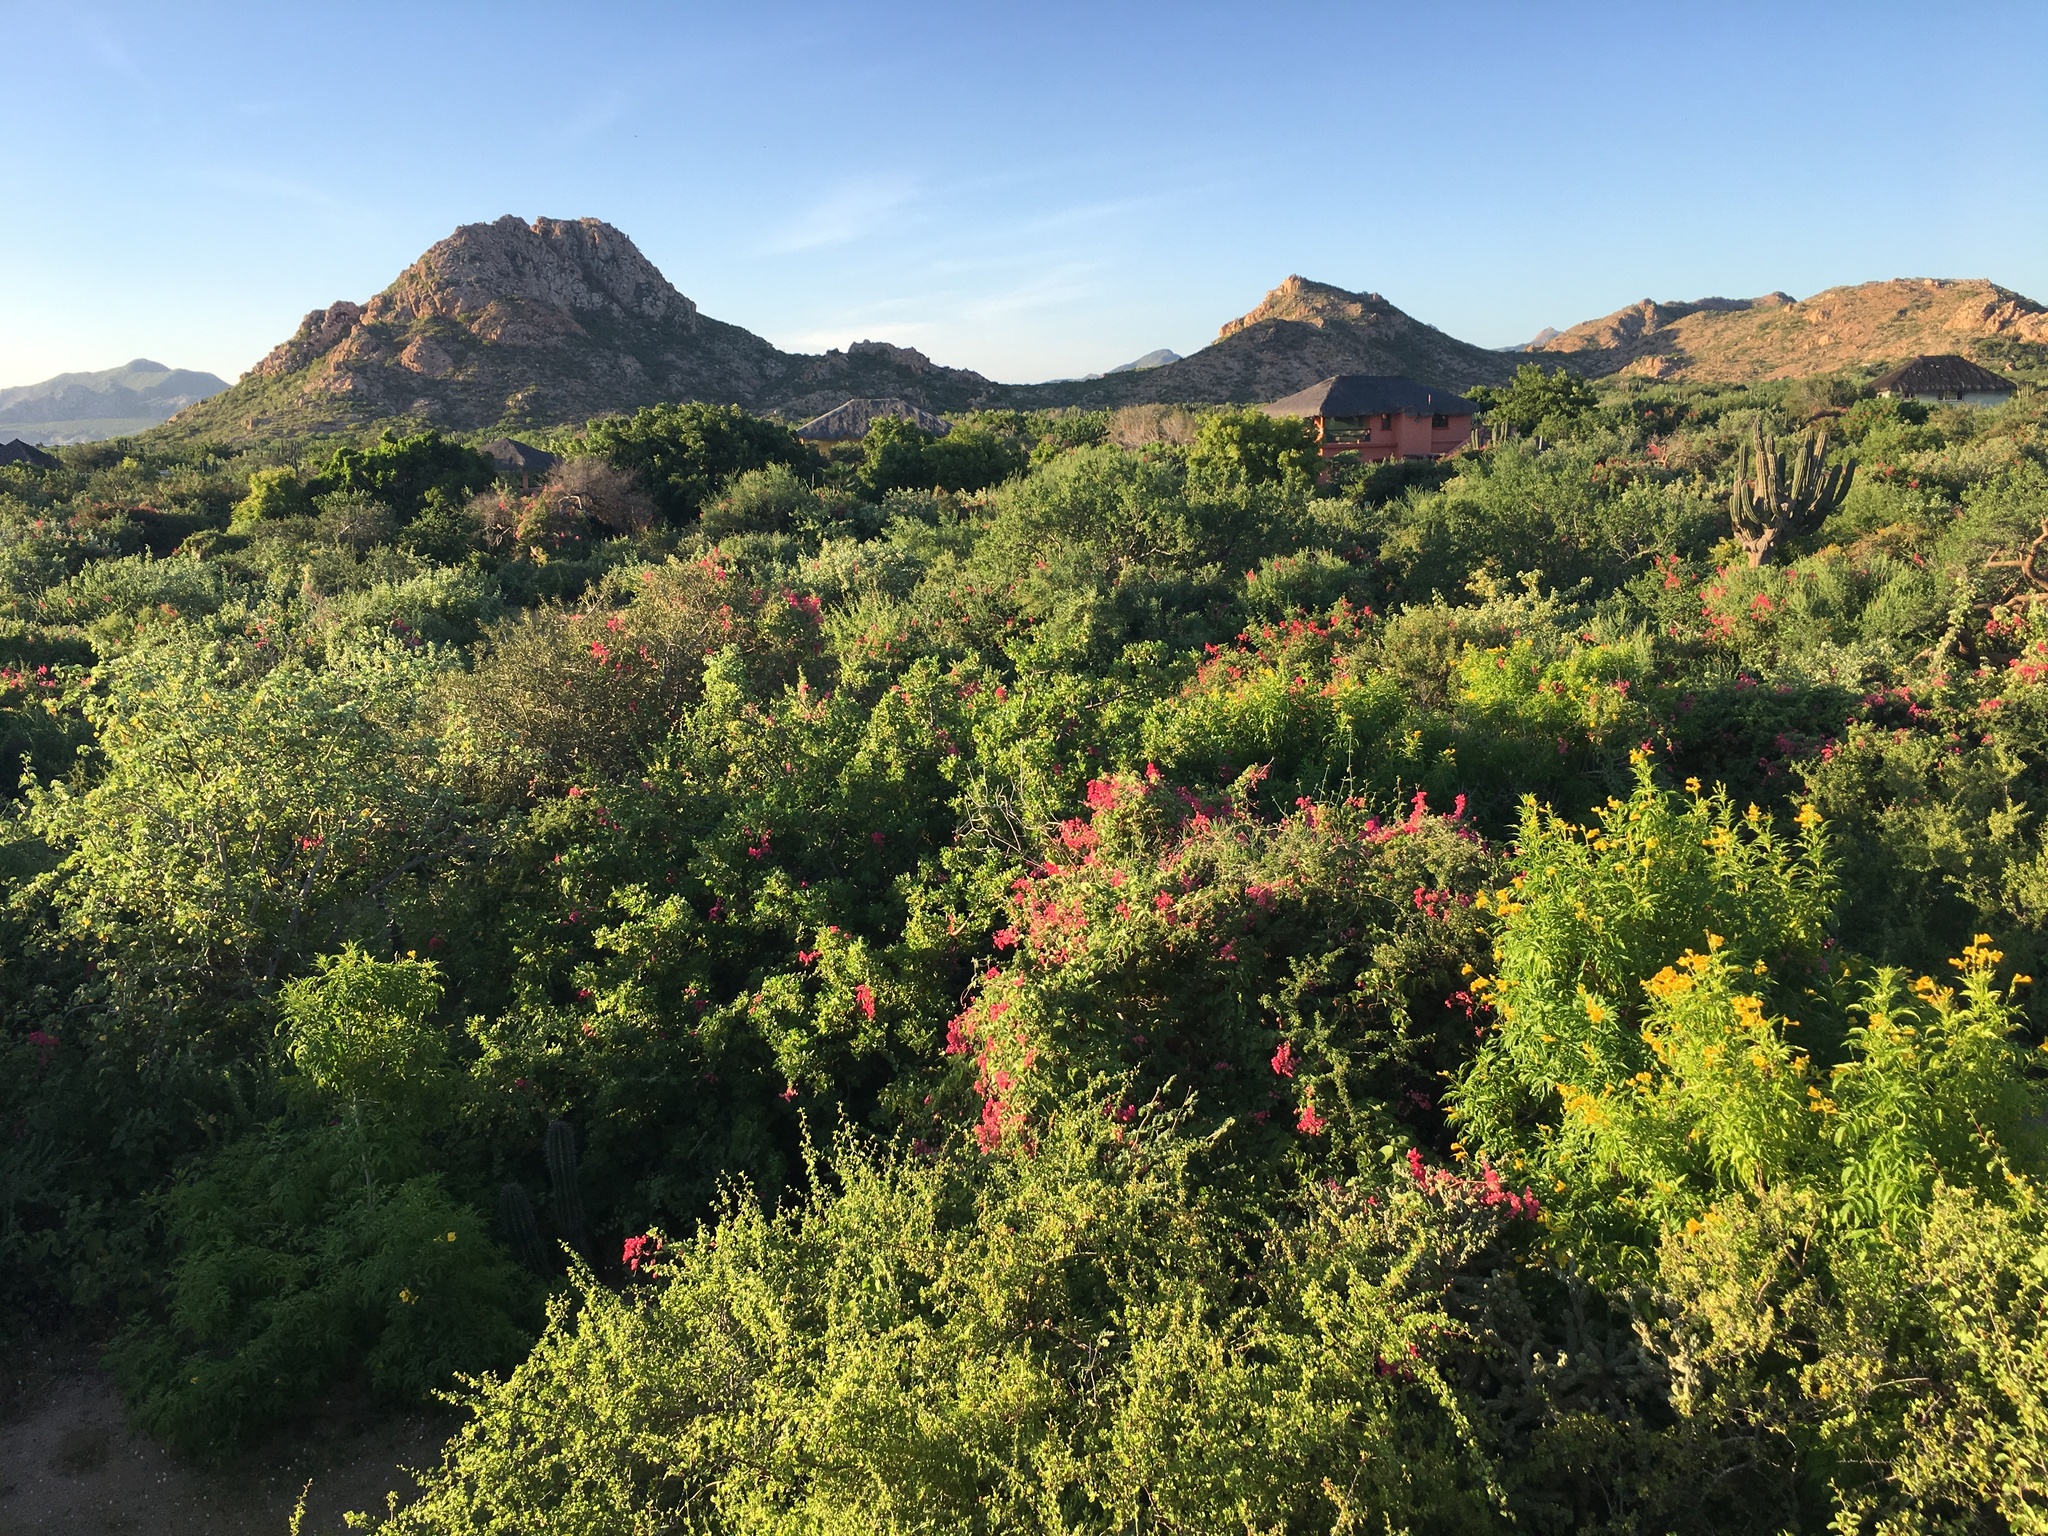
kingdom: Plantae
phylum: Tracheophyta
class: Magnoliopsida
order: Lamiales
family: Bignoniaceae
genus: Tecoma
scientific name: Tecoma stans
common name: Yellow trumpetbush
